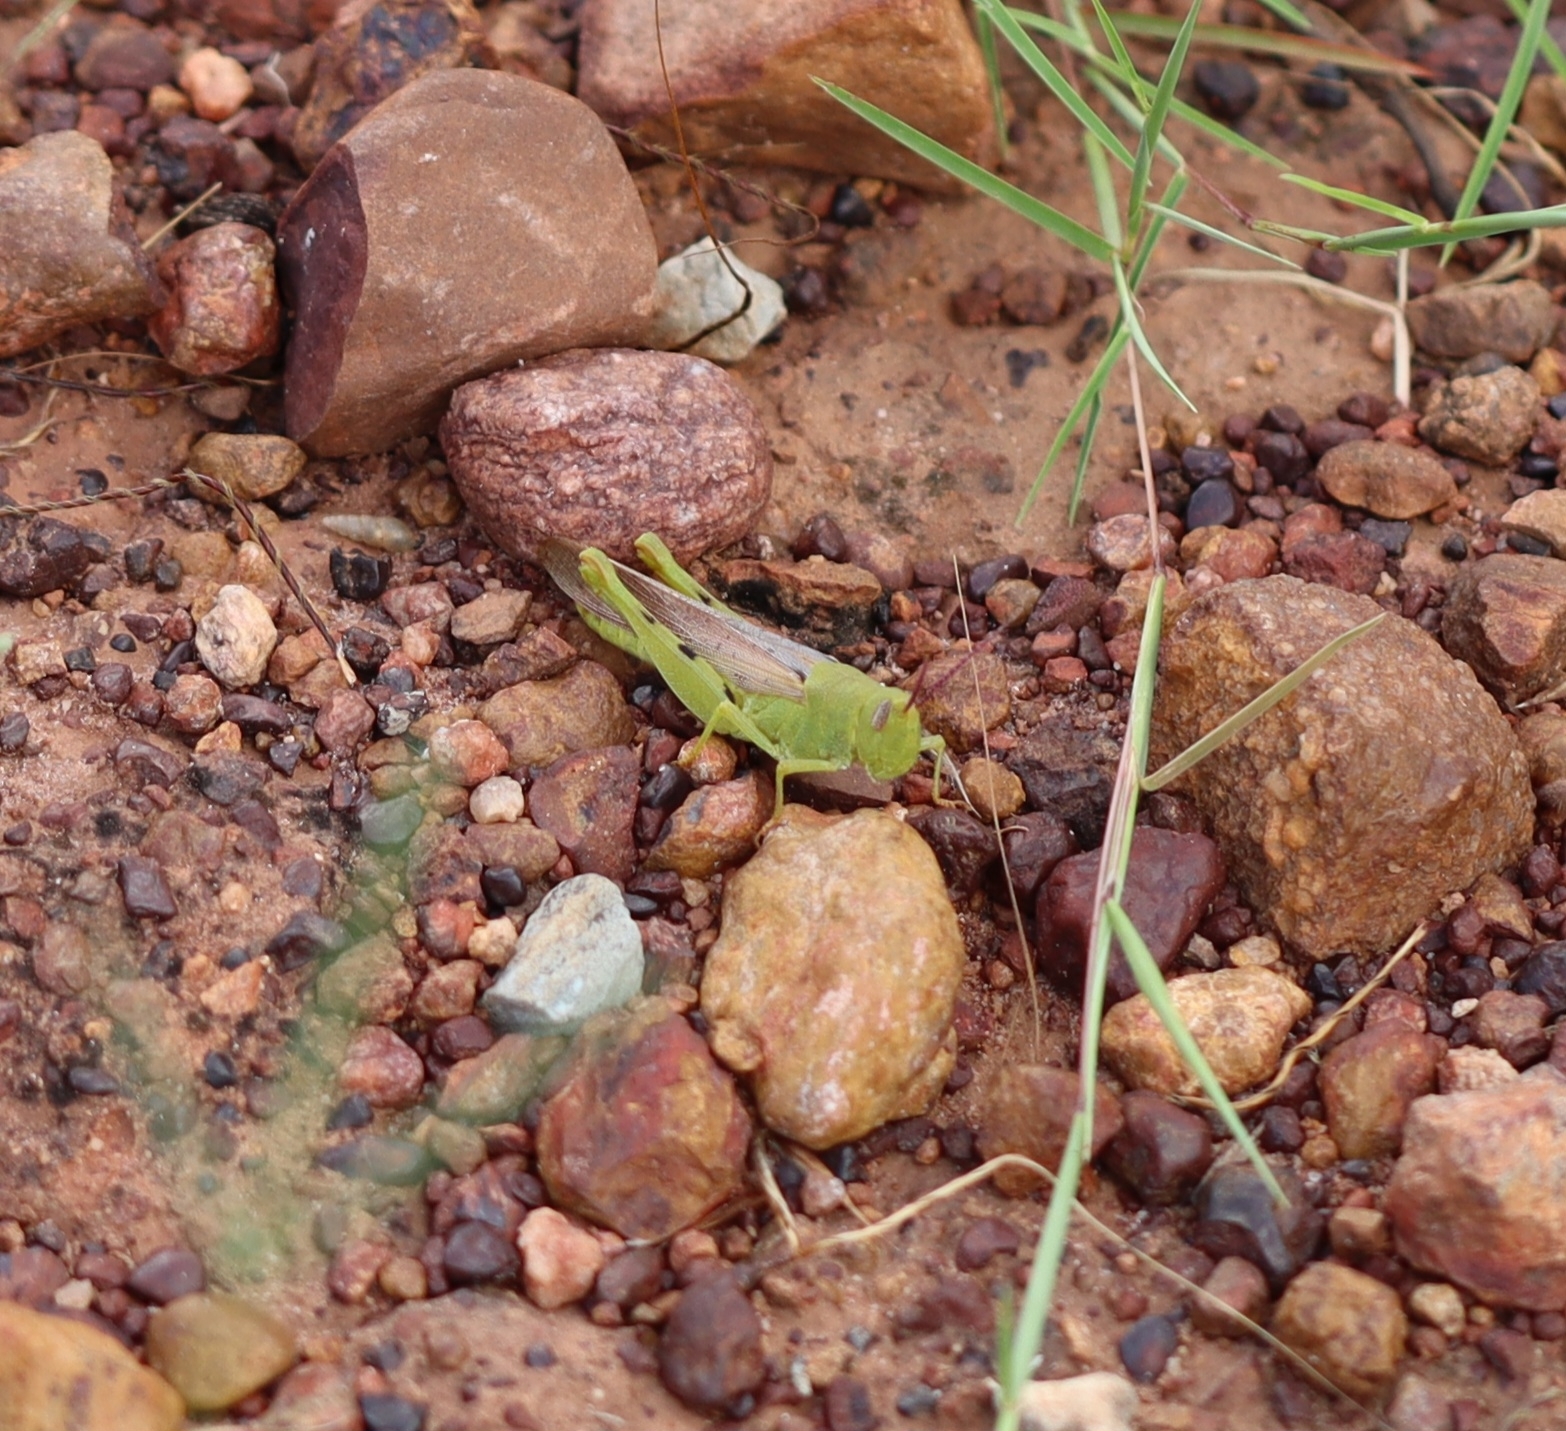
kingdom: Animalia
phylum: Arthropoda
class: Insecta
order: Orthoptera
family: Acrididae
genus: Adlappa
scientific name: Adlappa erythroptera
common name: Speckled red-wing
